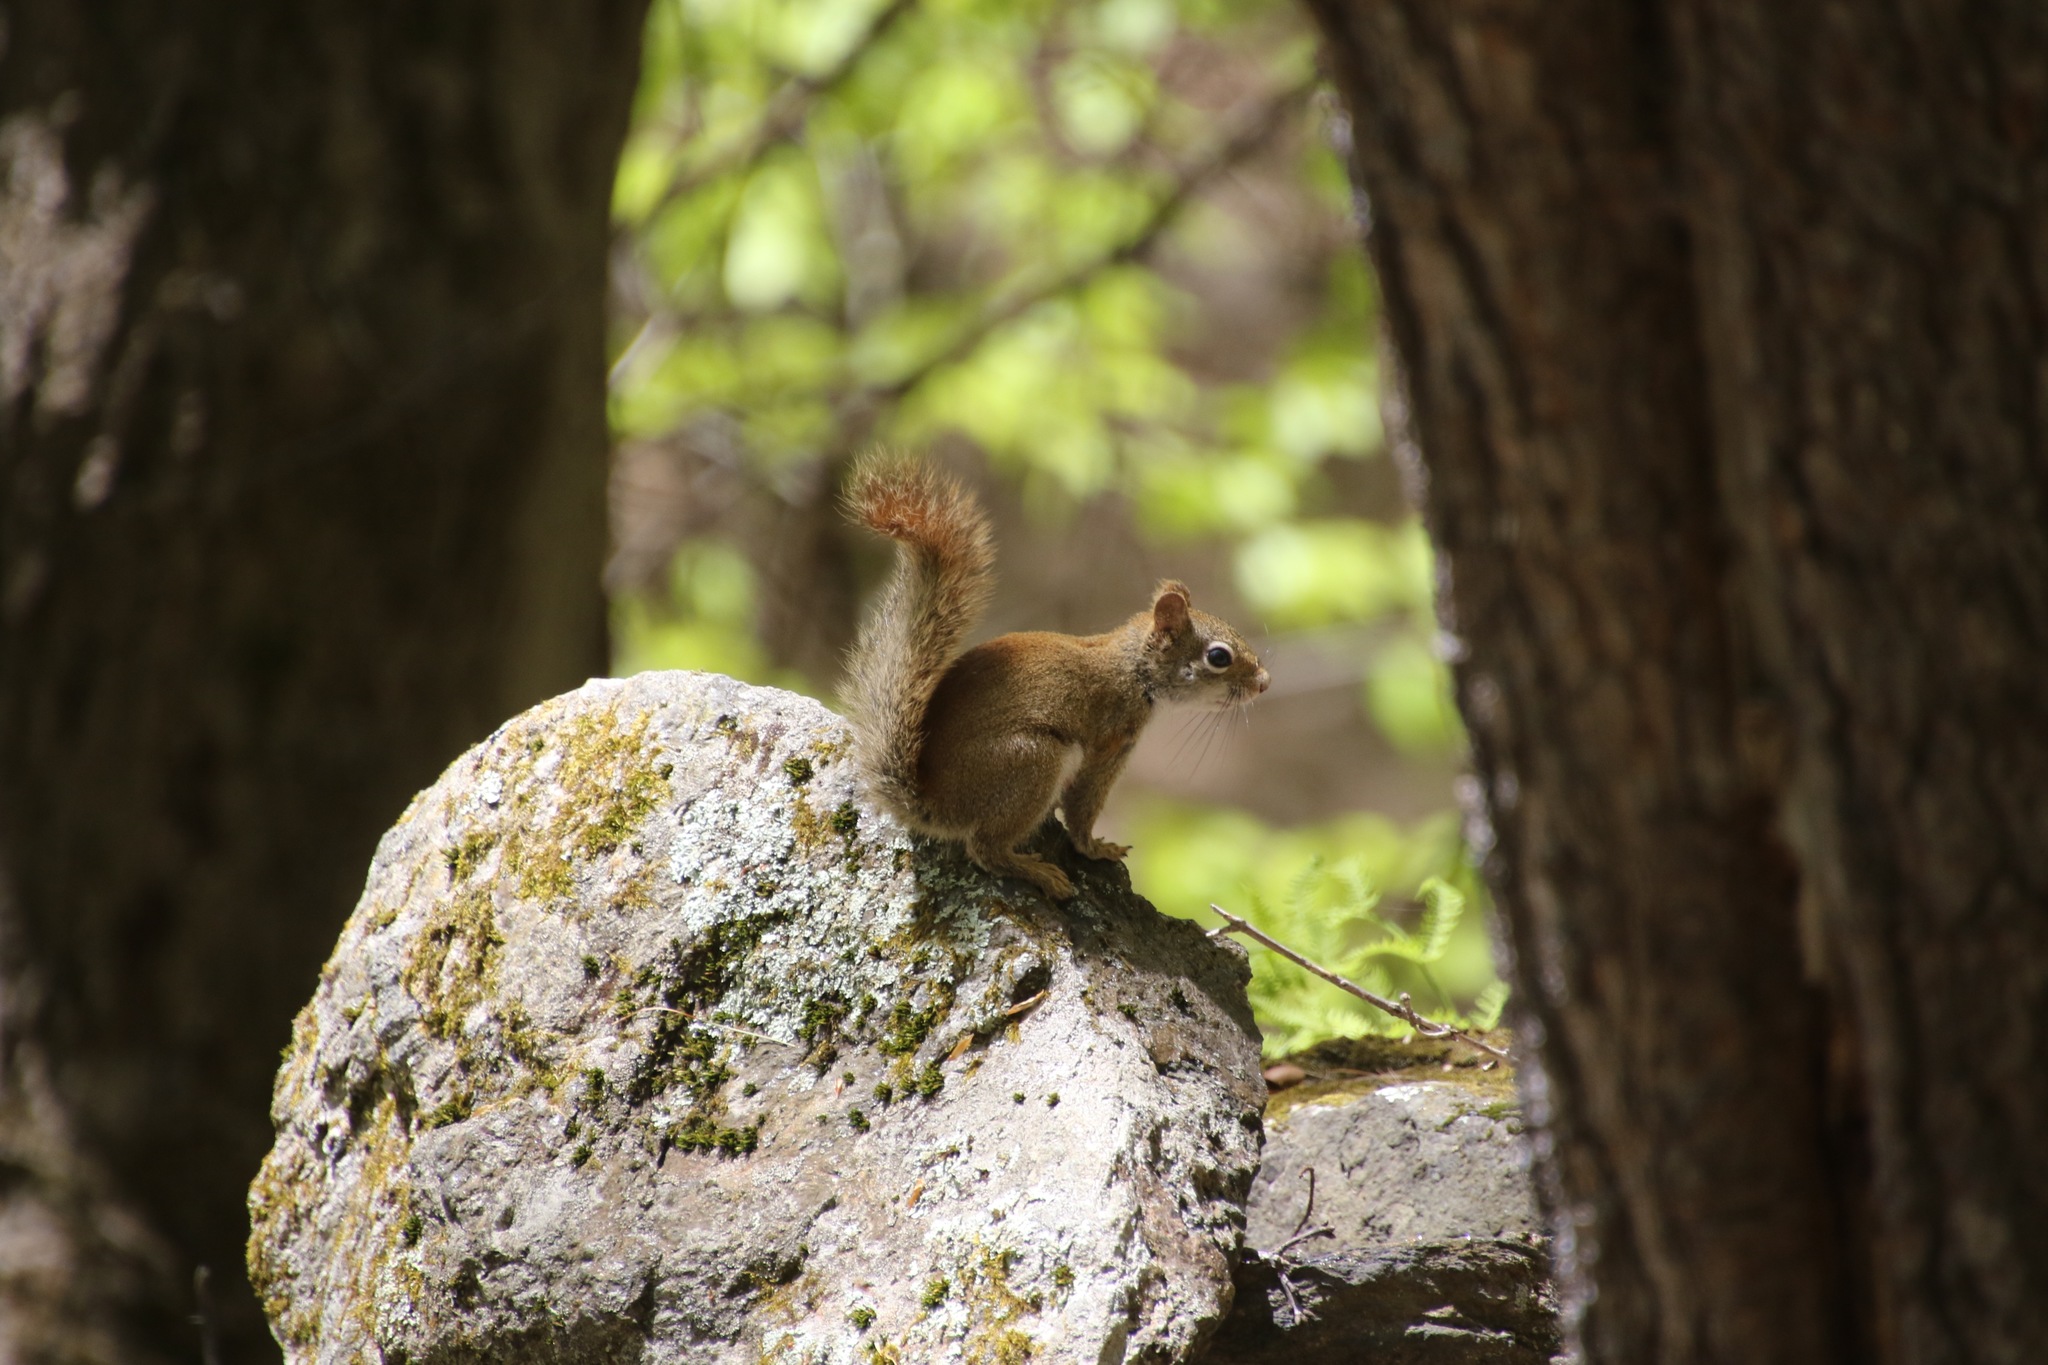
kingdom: Animalia
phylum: Chordata
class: Mammalia
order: Rodentia
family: Sciuridae
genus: Tamiasciurus
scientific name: Tamiasciurus hudsonicus
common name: Red squirrel
